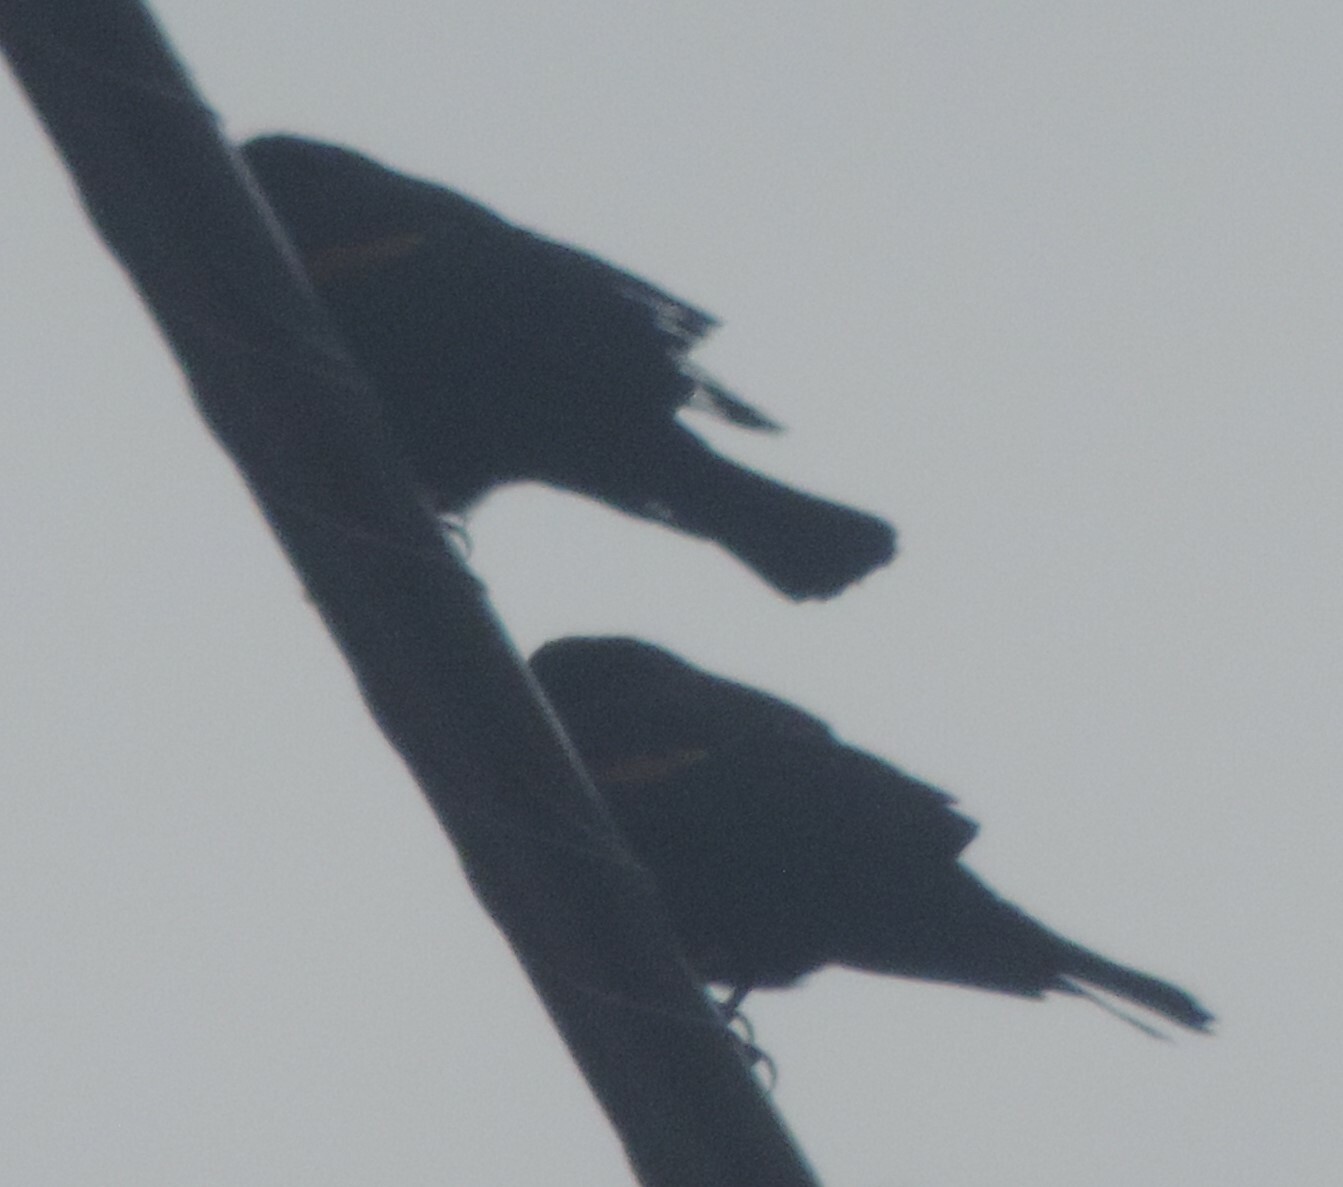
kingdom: Animalia
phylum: Chordata
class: Aves
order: Passeriformes
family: Icteridae
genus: Agelaius
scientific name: Agelaius phoeniceus
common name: Red-winged blackbird
